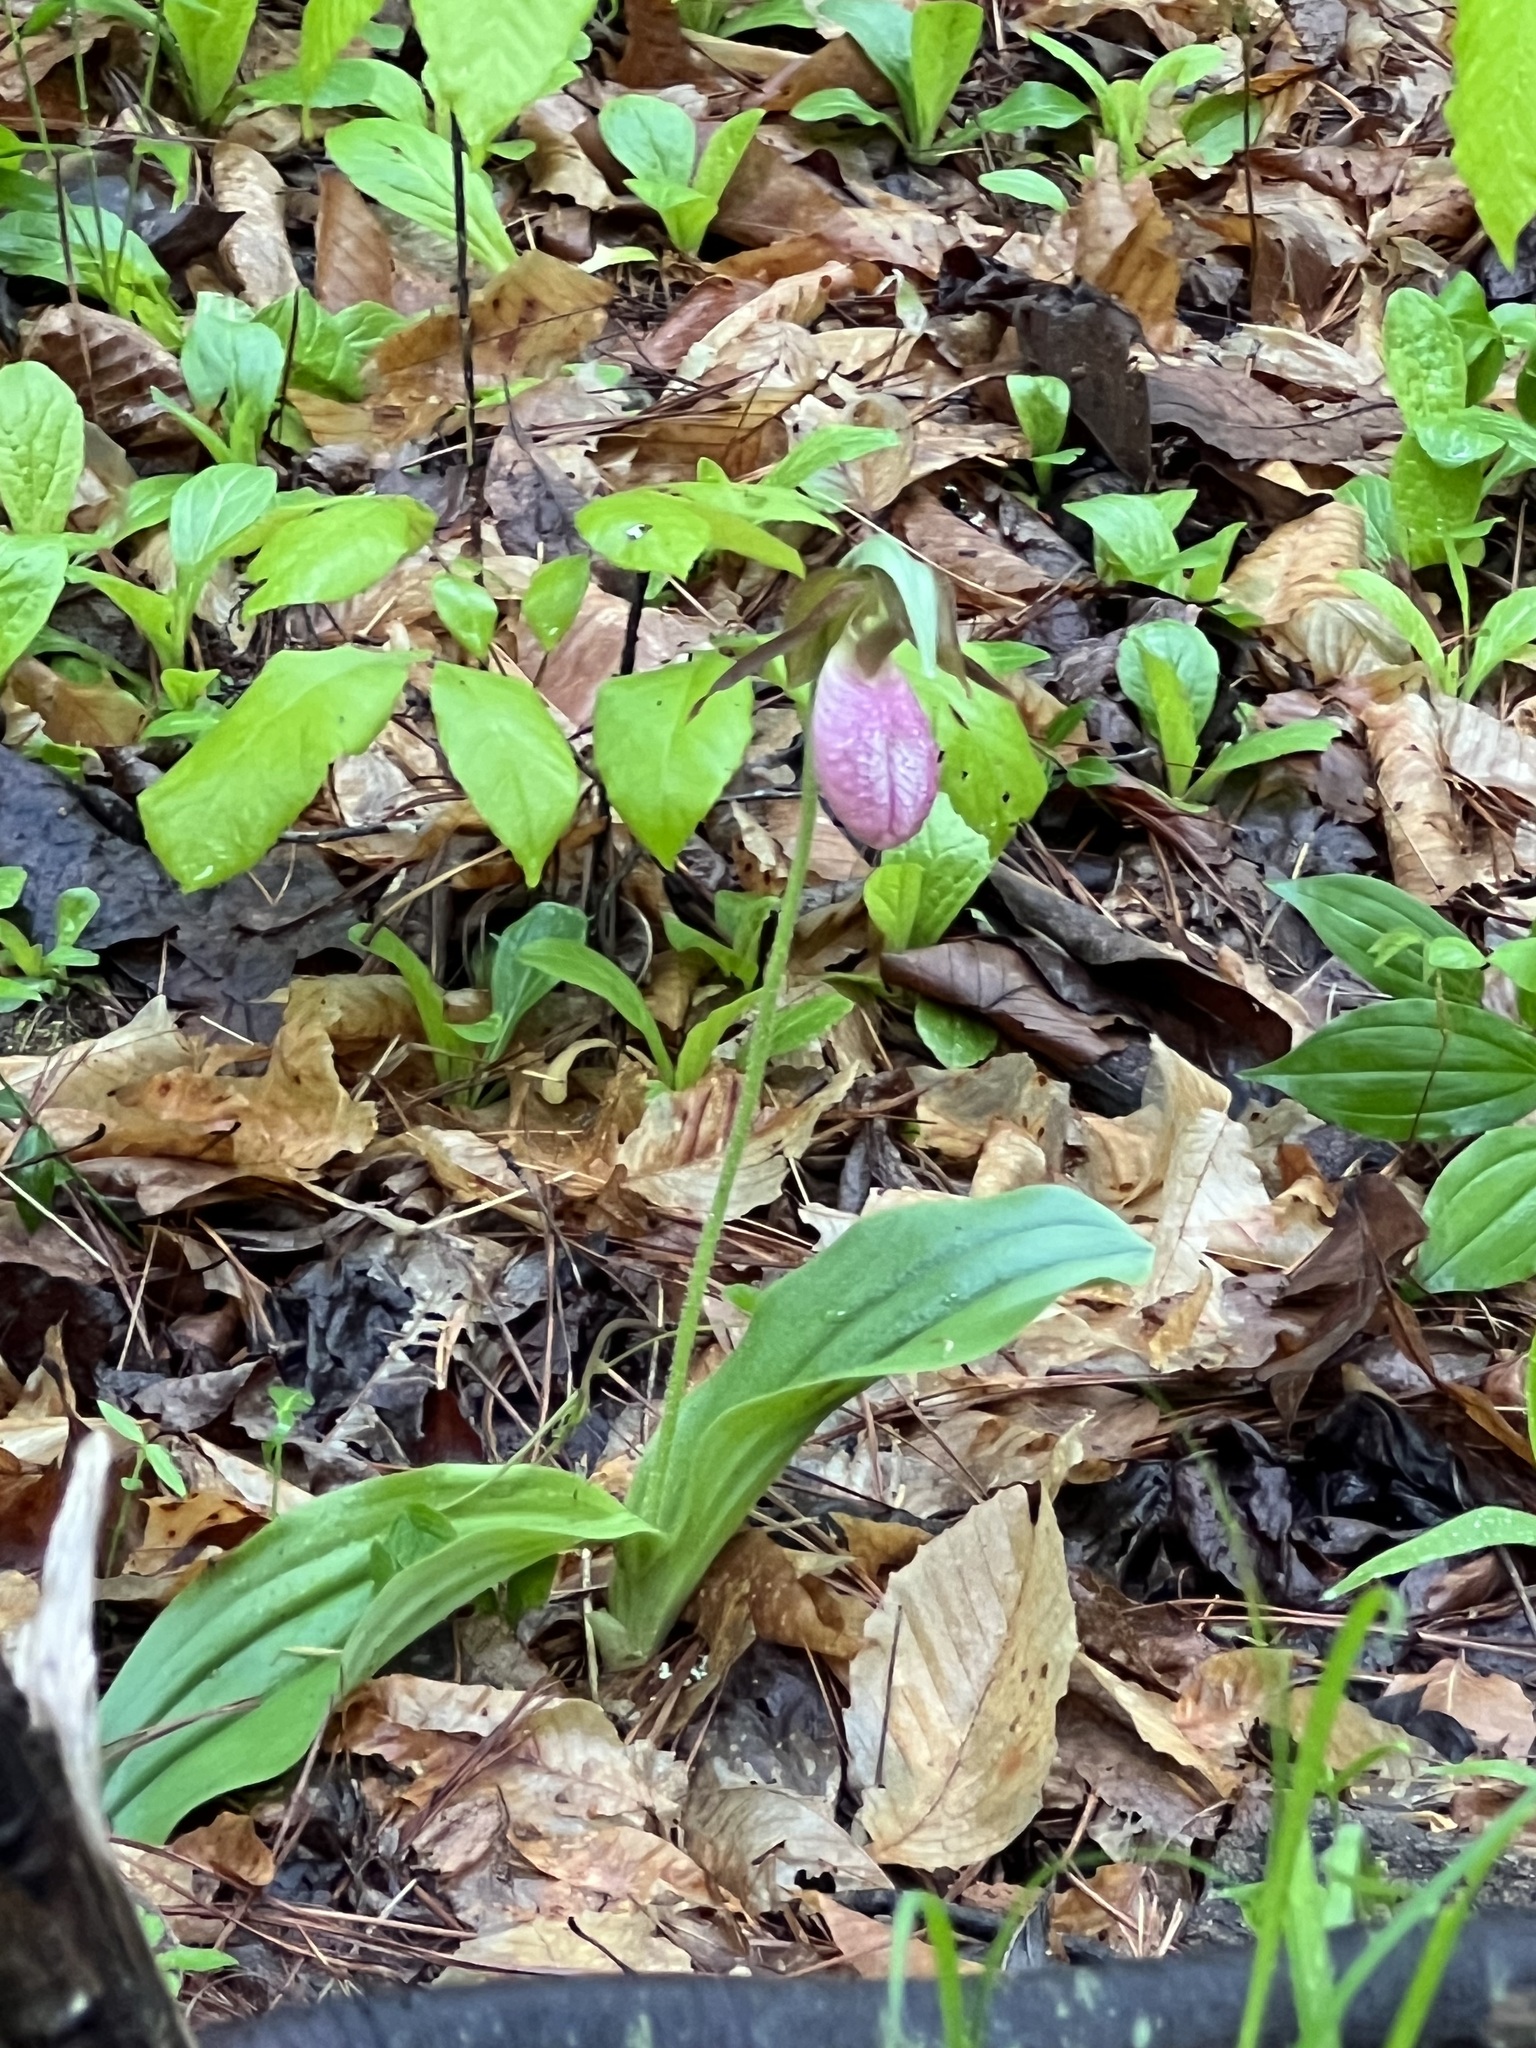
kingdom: Plantae
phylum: Tracheophyta
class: Liliopsida
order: Asparagales
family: Orchidaceae
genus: Cypripedium
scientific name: Cypripedium acaule
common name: Pink lady's-slipper
